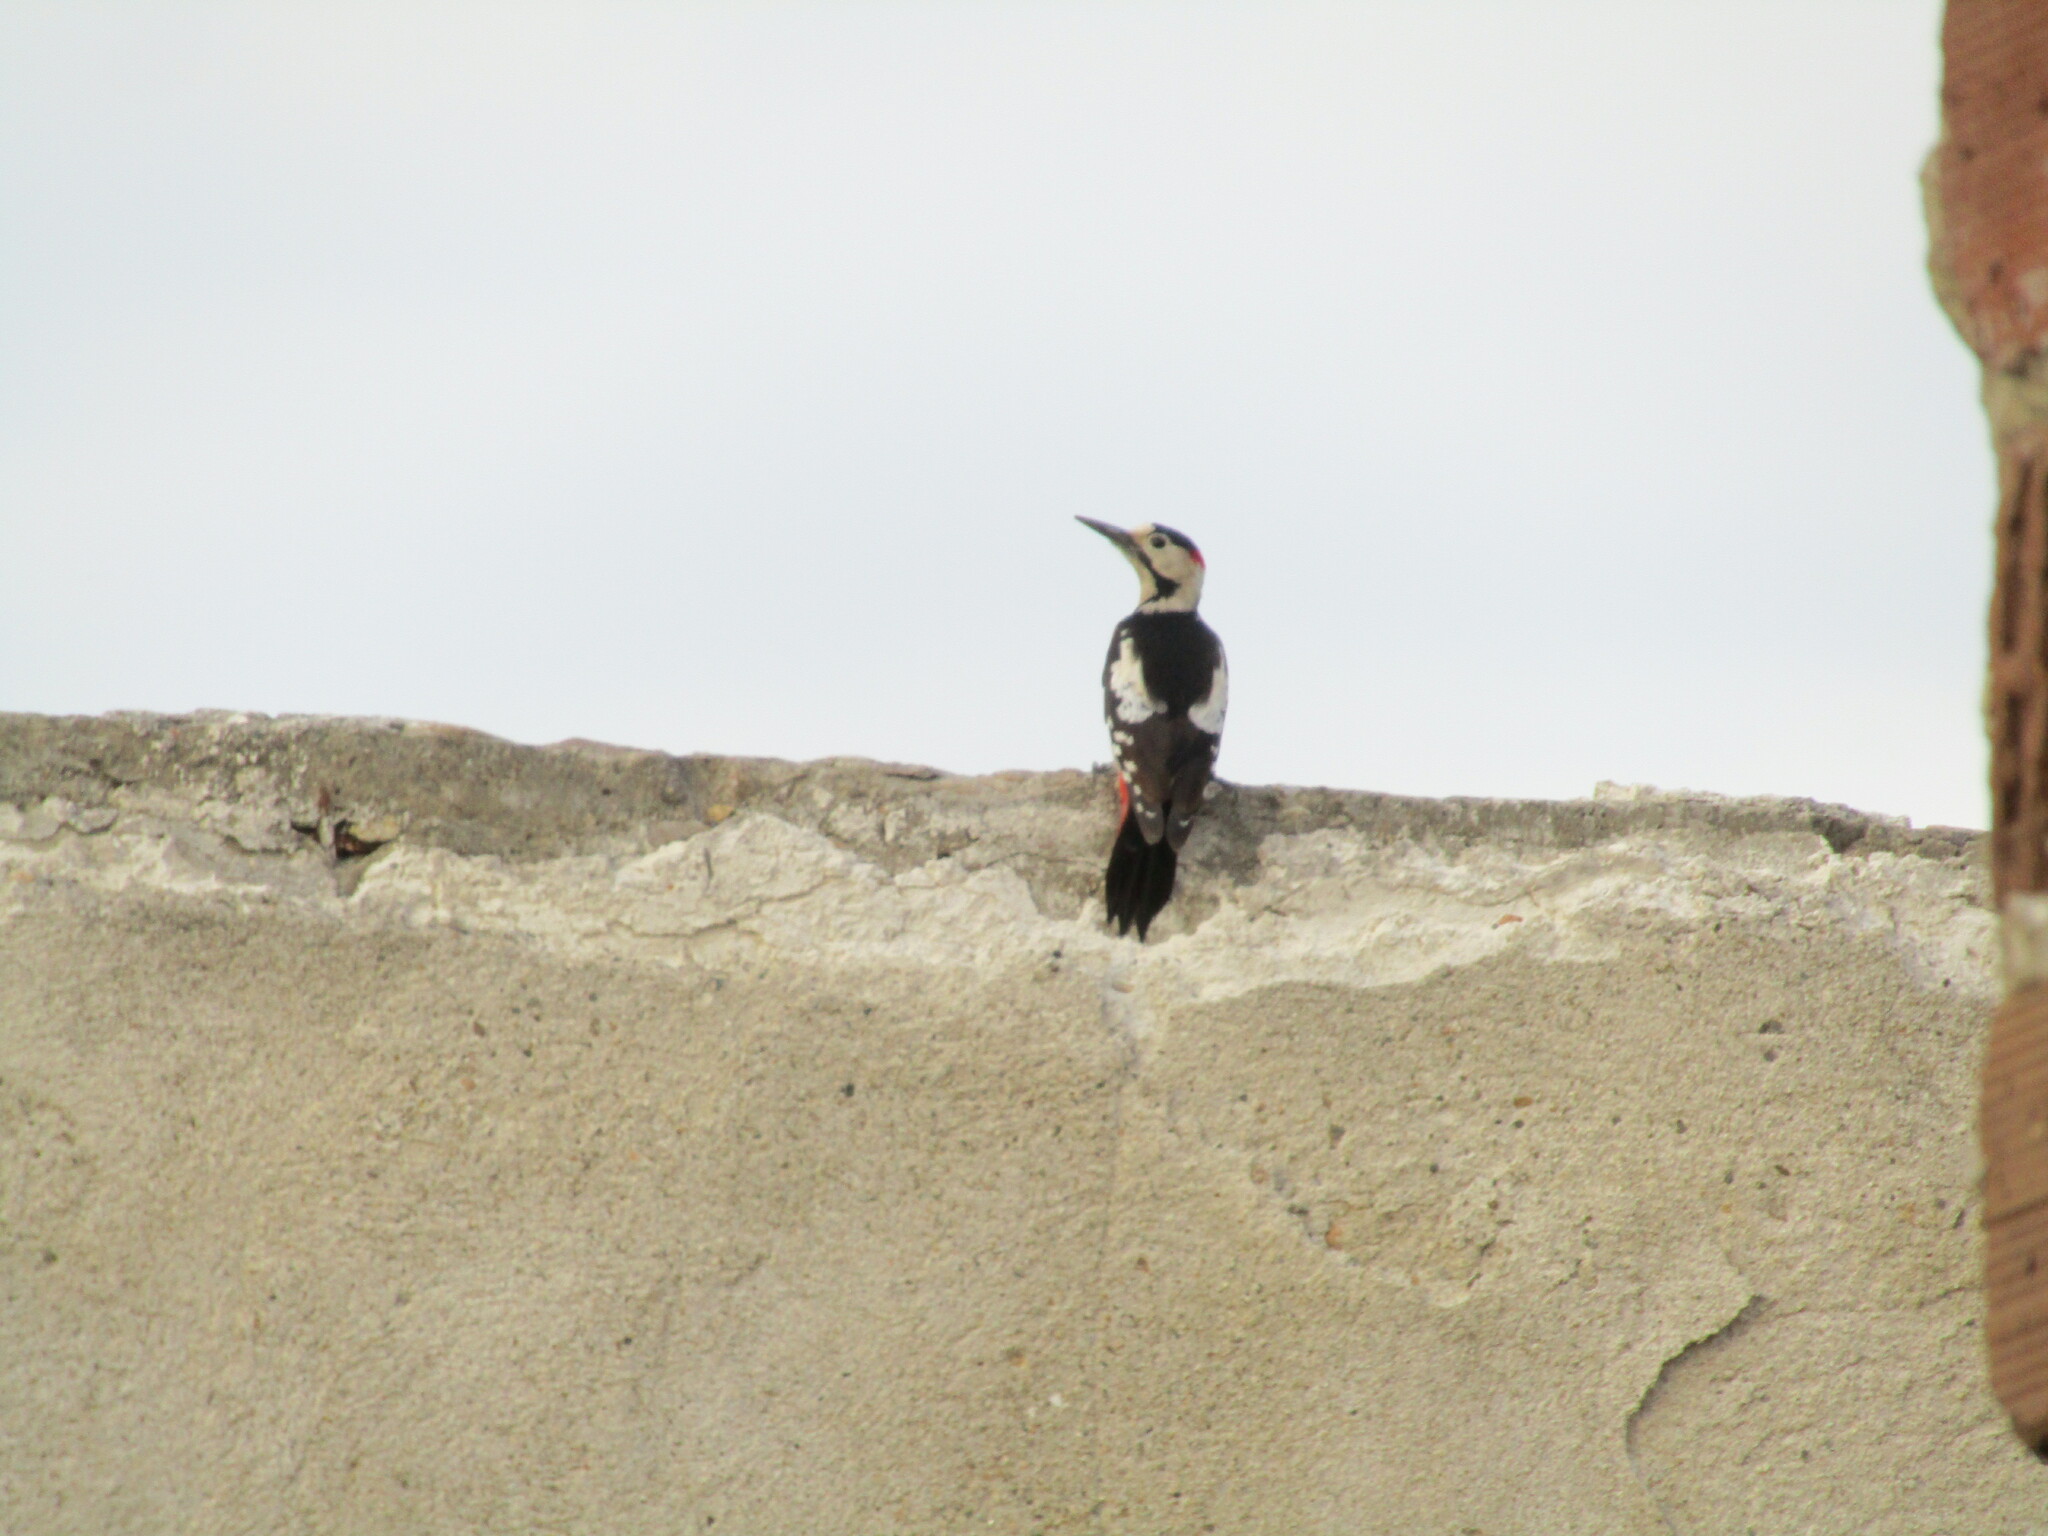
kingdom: Animalia
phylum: Chordata
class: Aves
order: Piciformes
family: Picidae
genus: Dendrocopos
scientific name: Dendrocopos syriacus
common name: Syrian woodpecker
